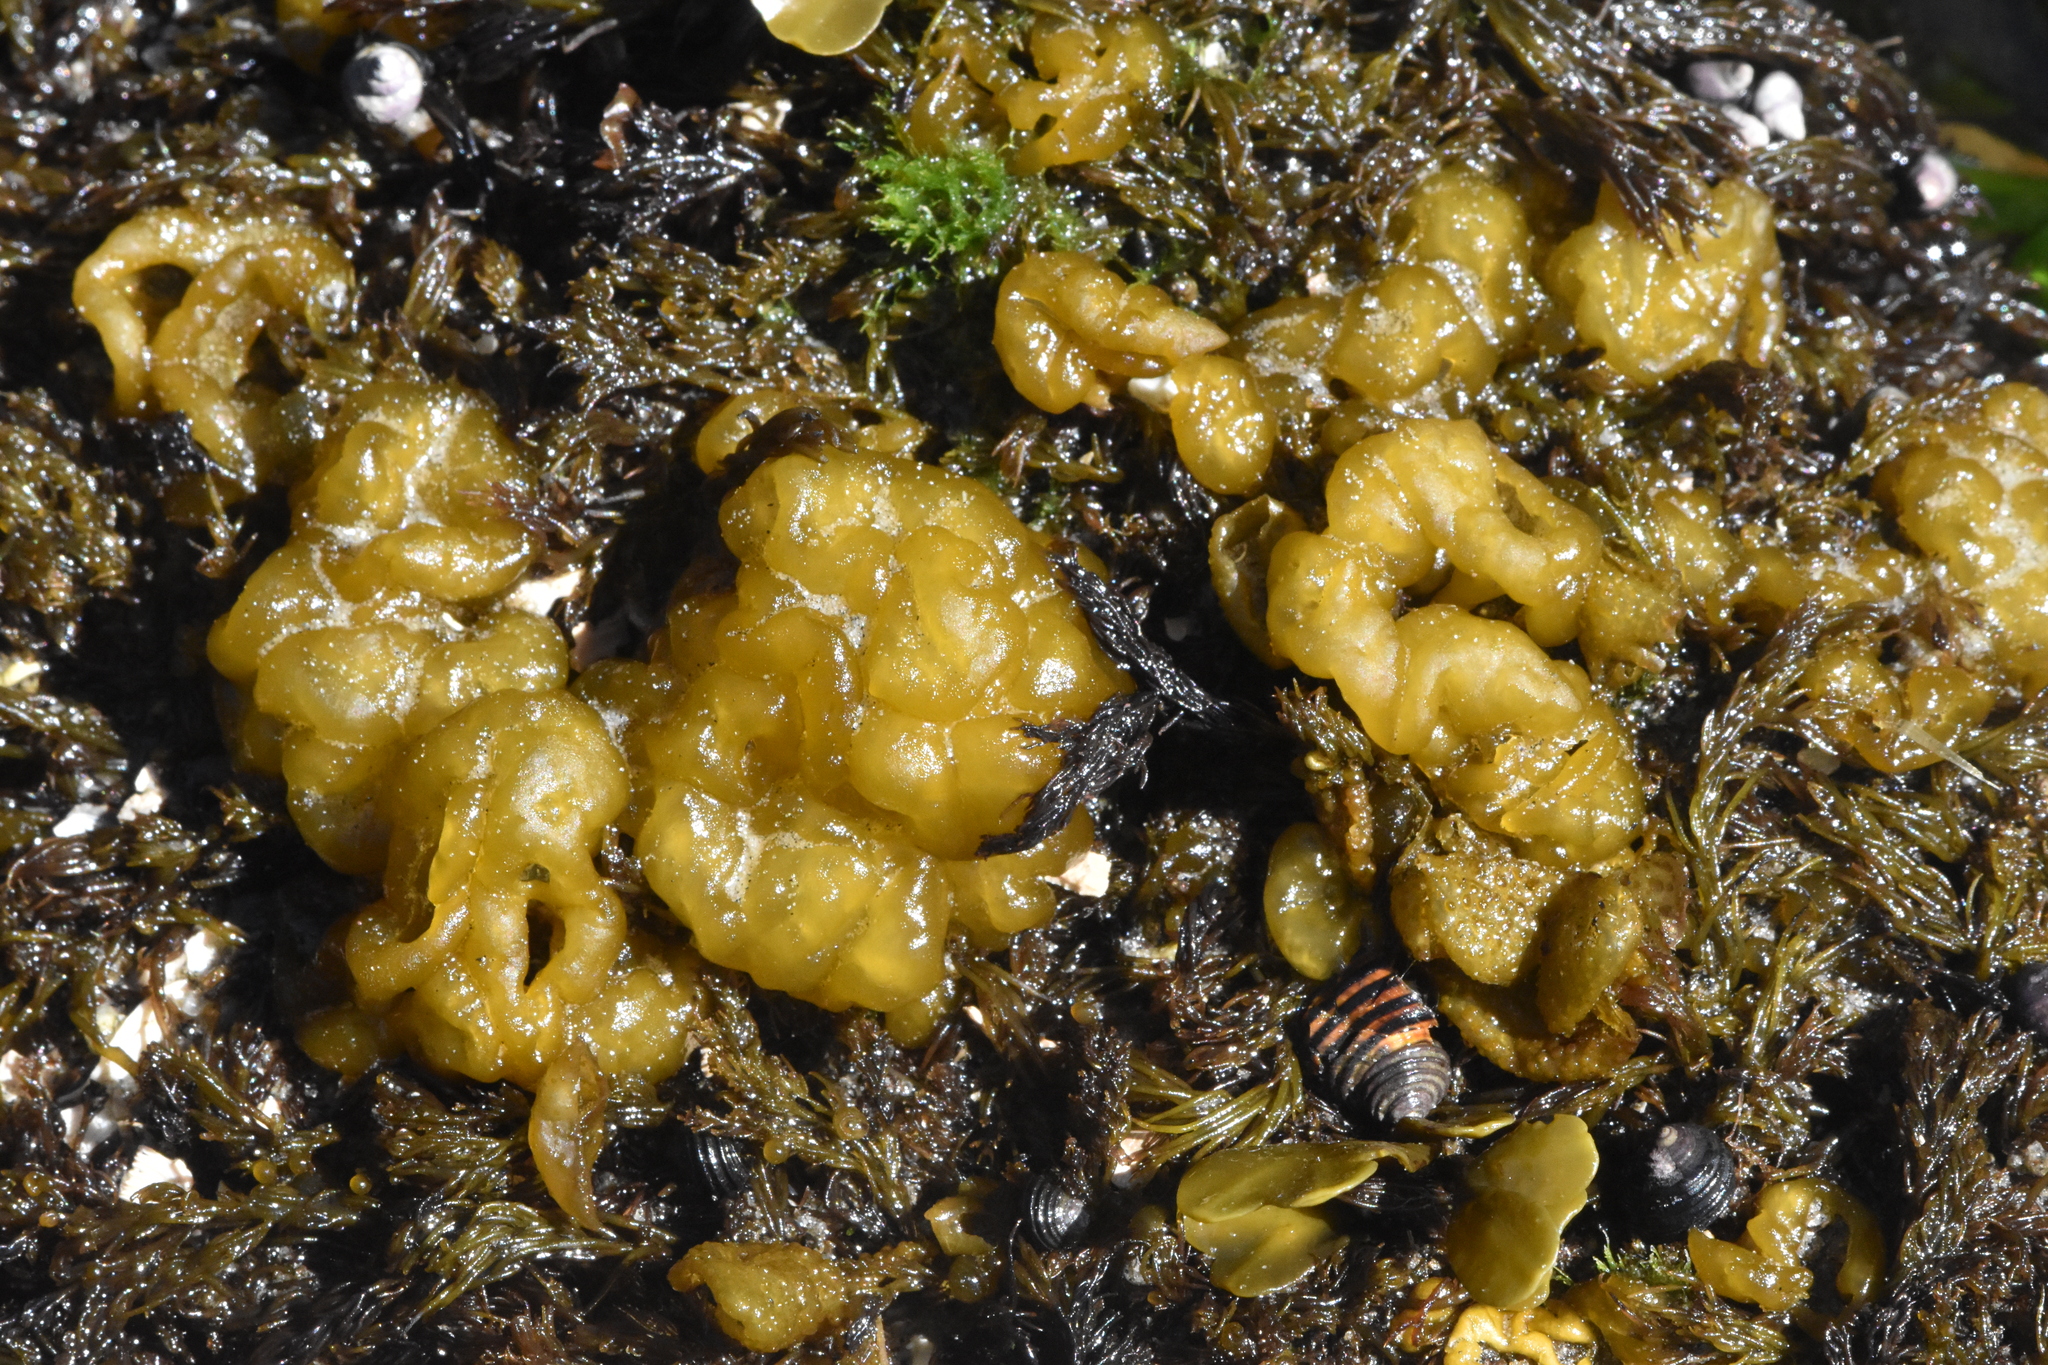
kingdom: Chromista
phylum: Ochrophyta
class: Phaeophyceae
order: Ectocarpales
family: Chordariaceae
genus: Leathesia
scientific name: Leathesia marina
